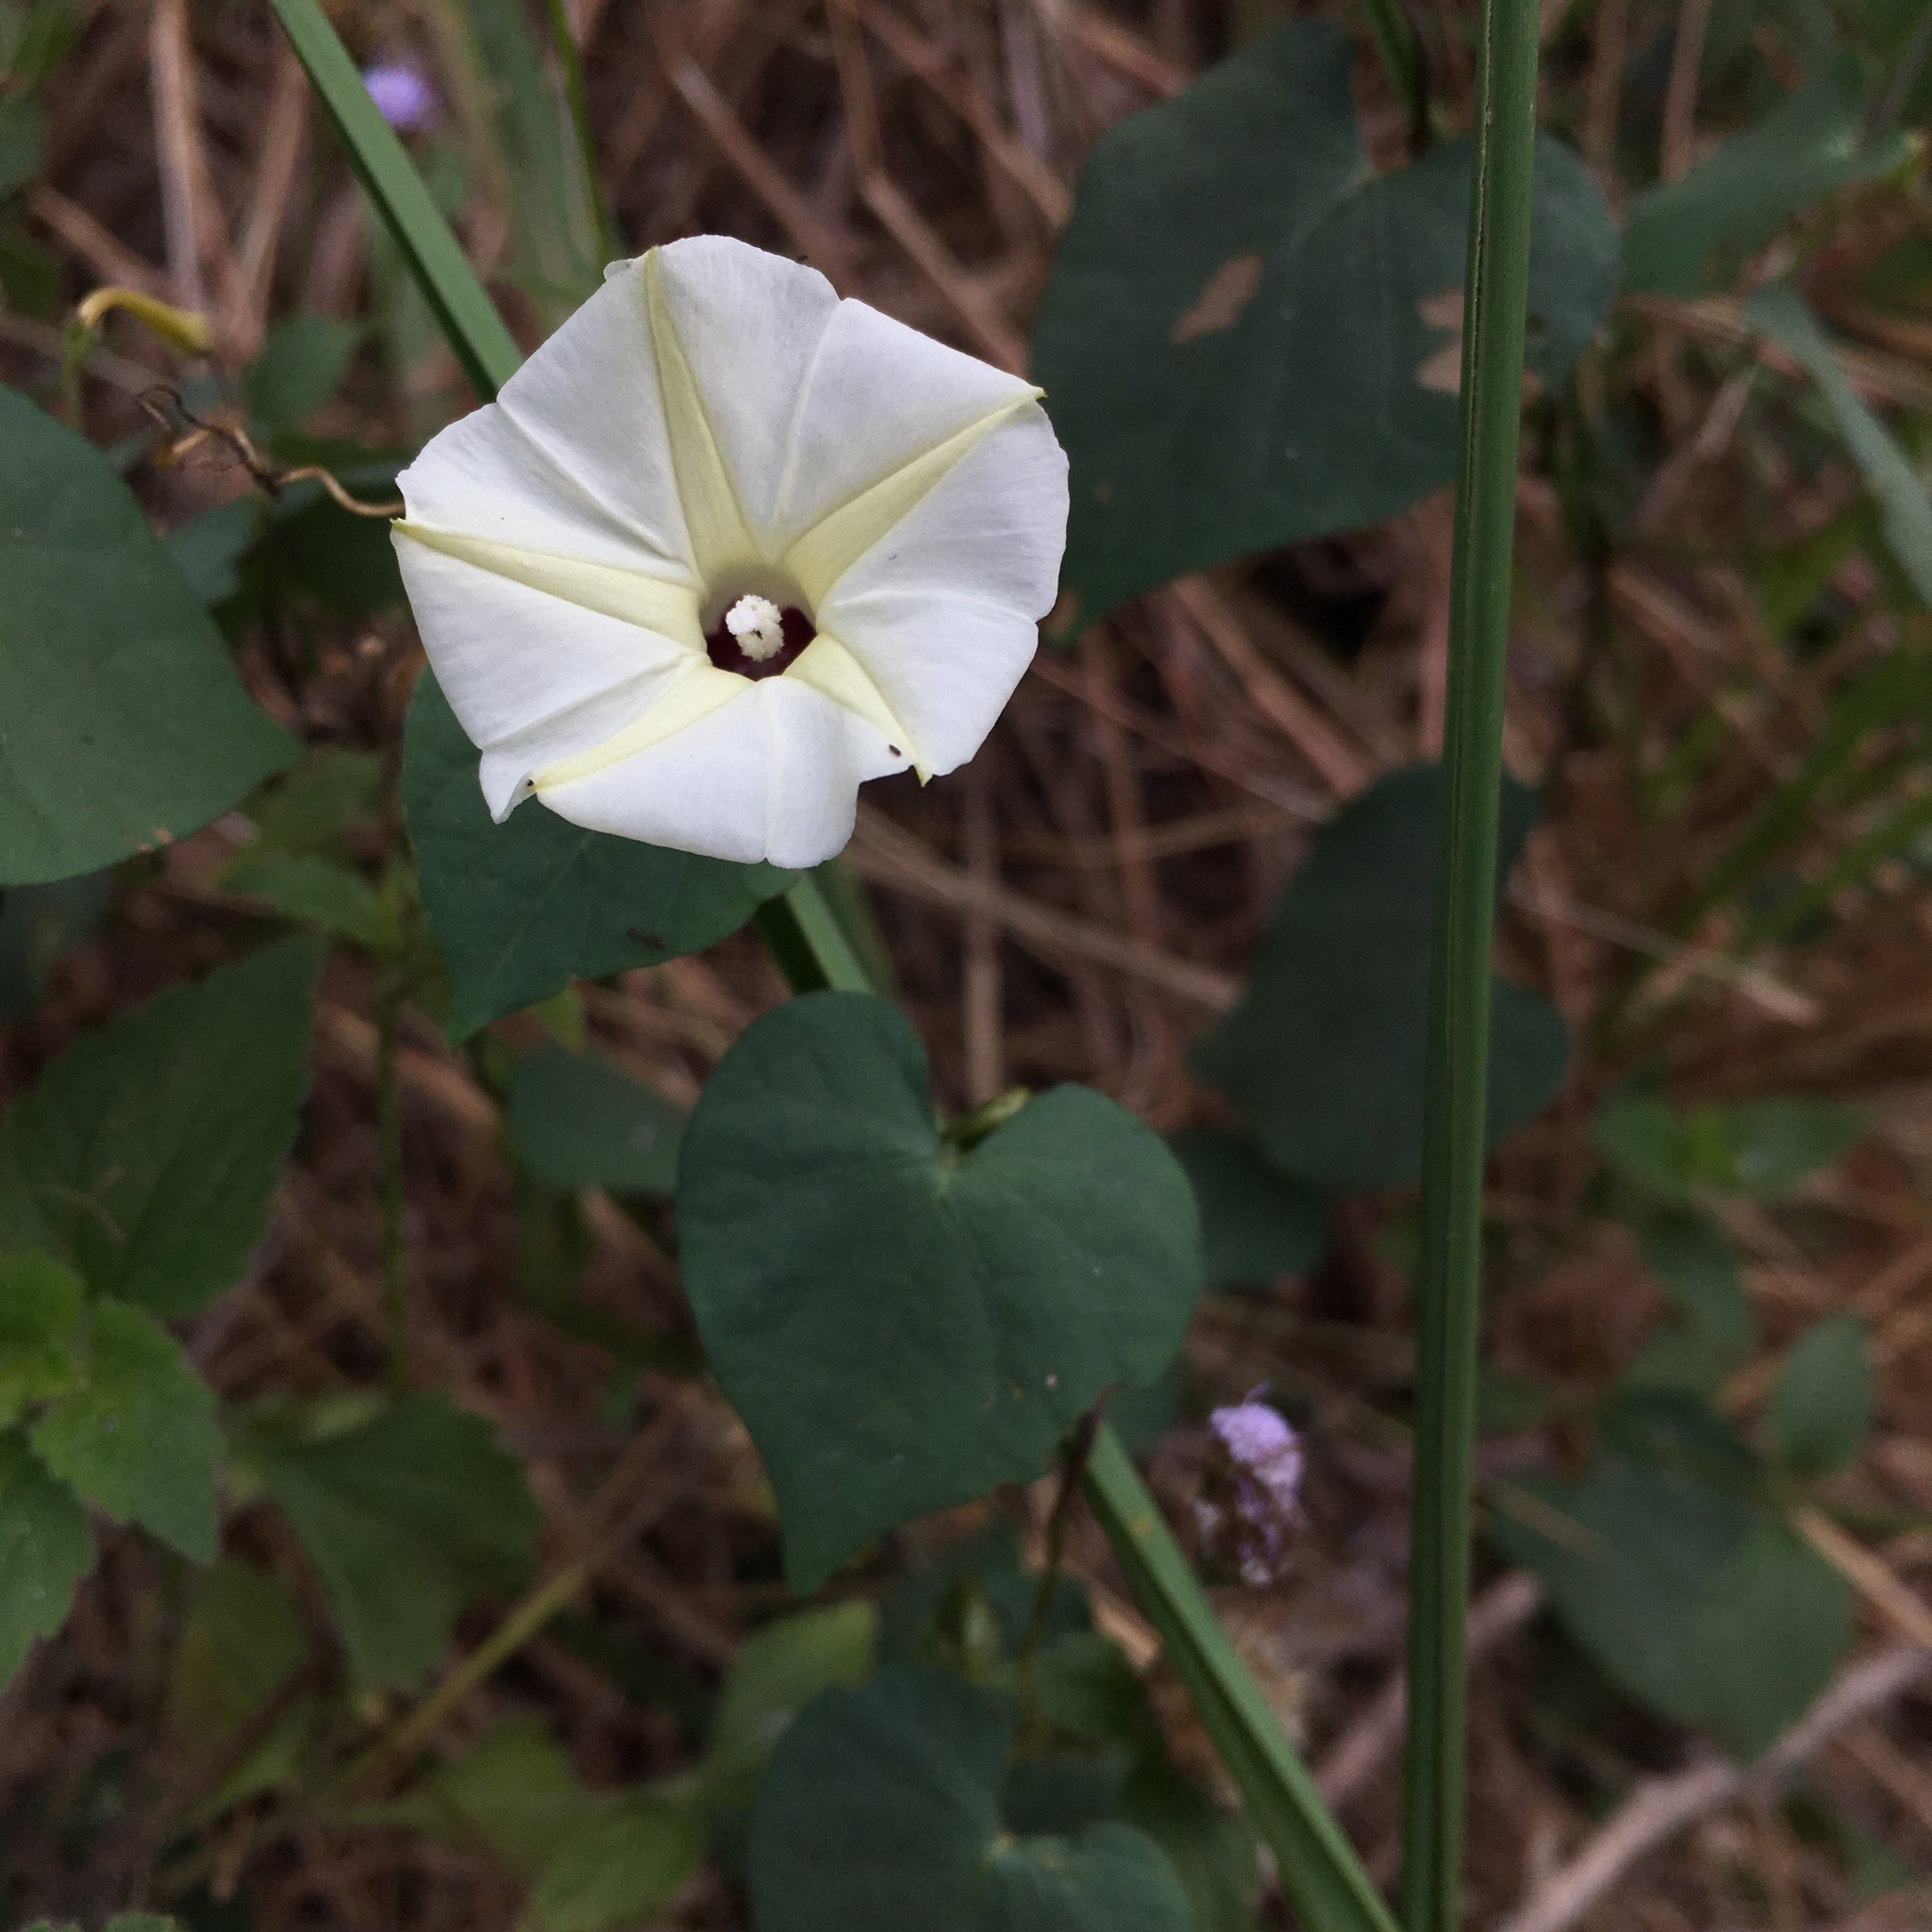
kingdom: Plantae
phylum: Tracheophyta
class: Magnoliopsida
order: Solanales
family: Convolvulaceae
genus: Ipomoea
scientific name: Ipomoea obscura
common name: Obscure morning-glory
